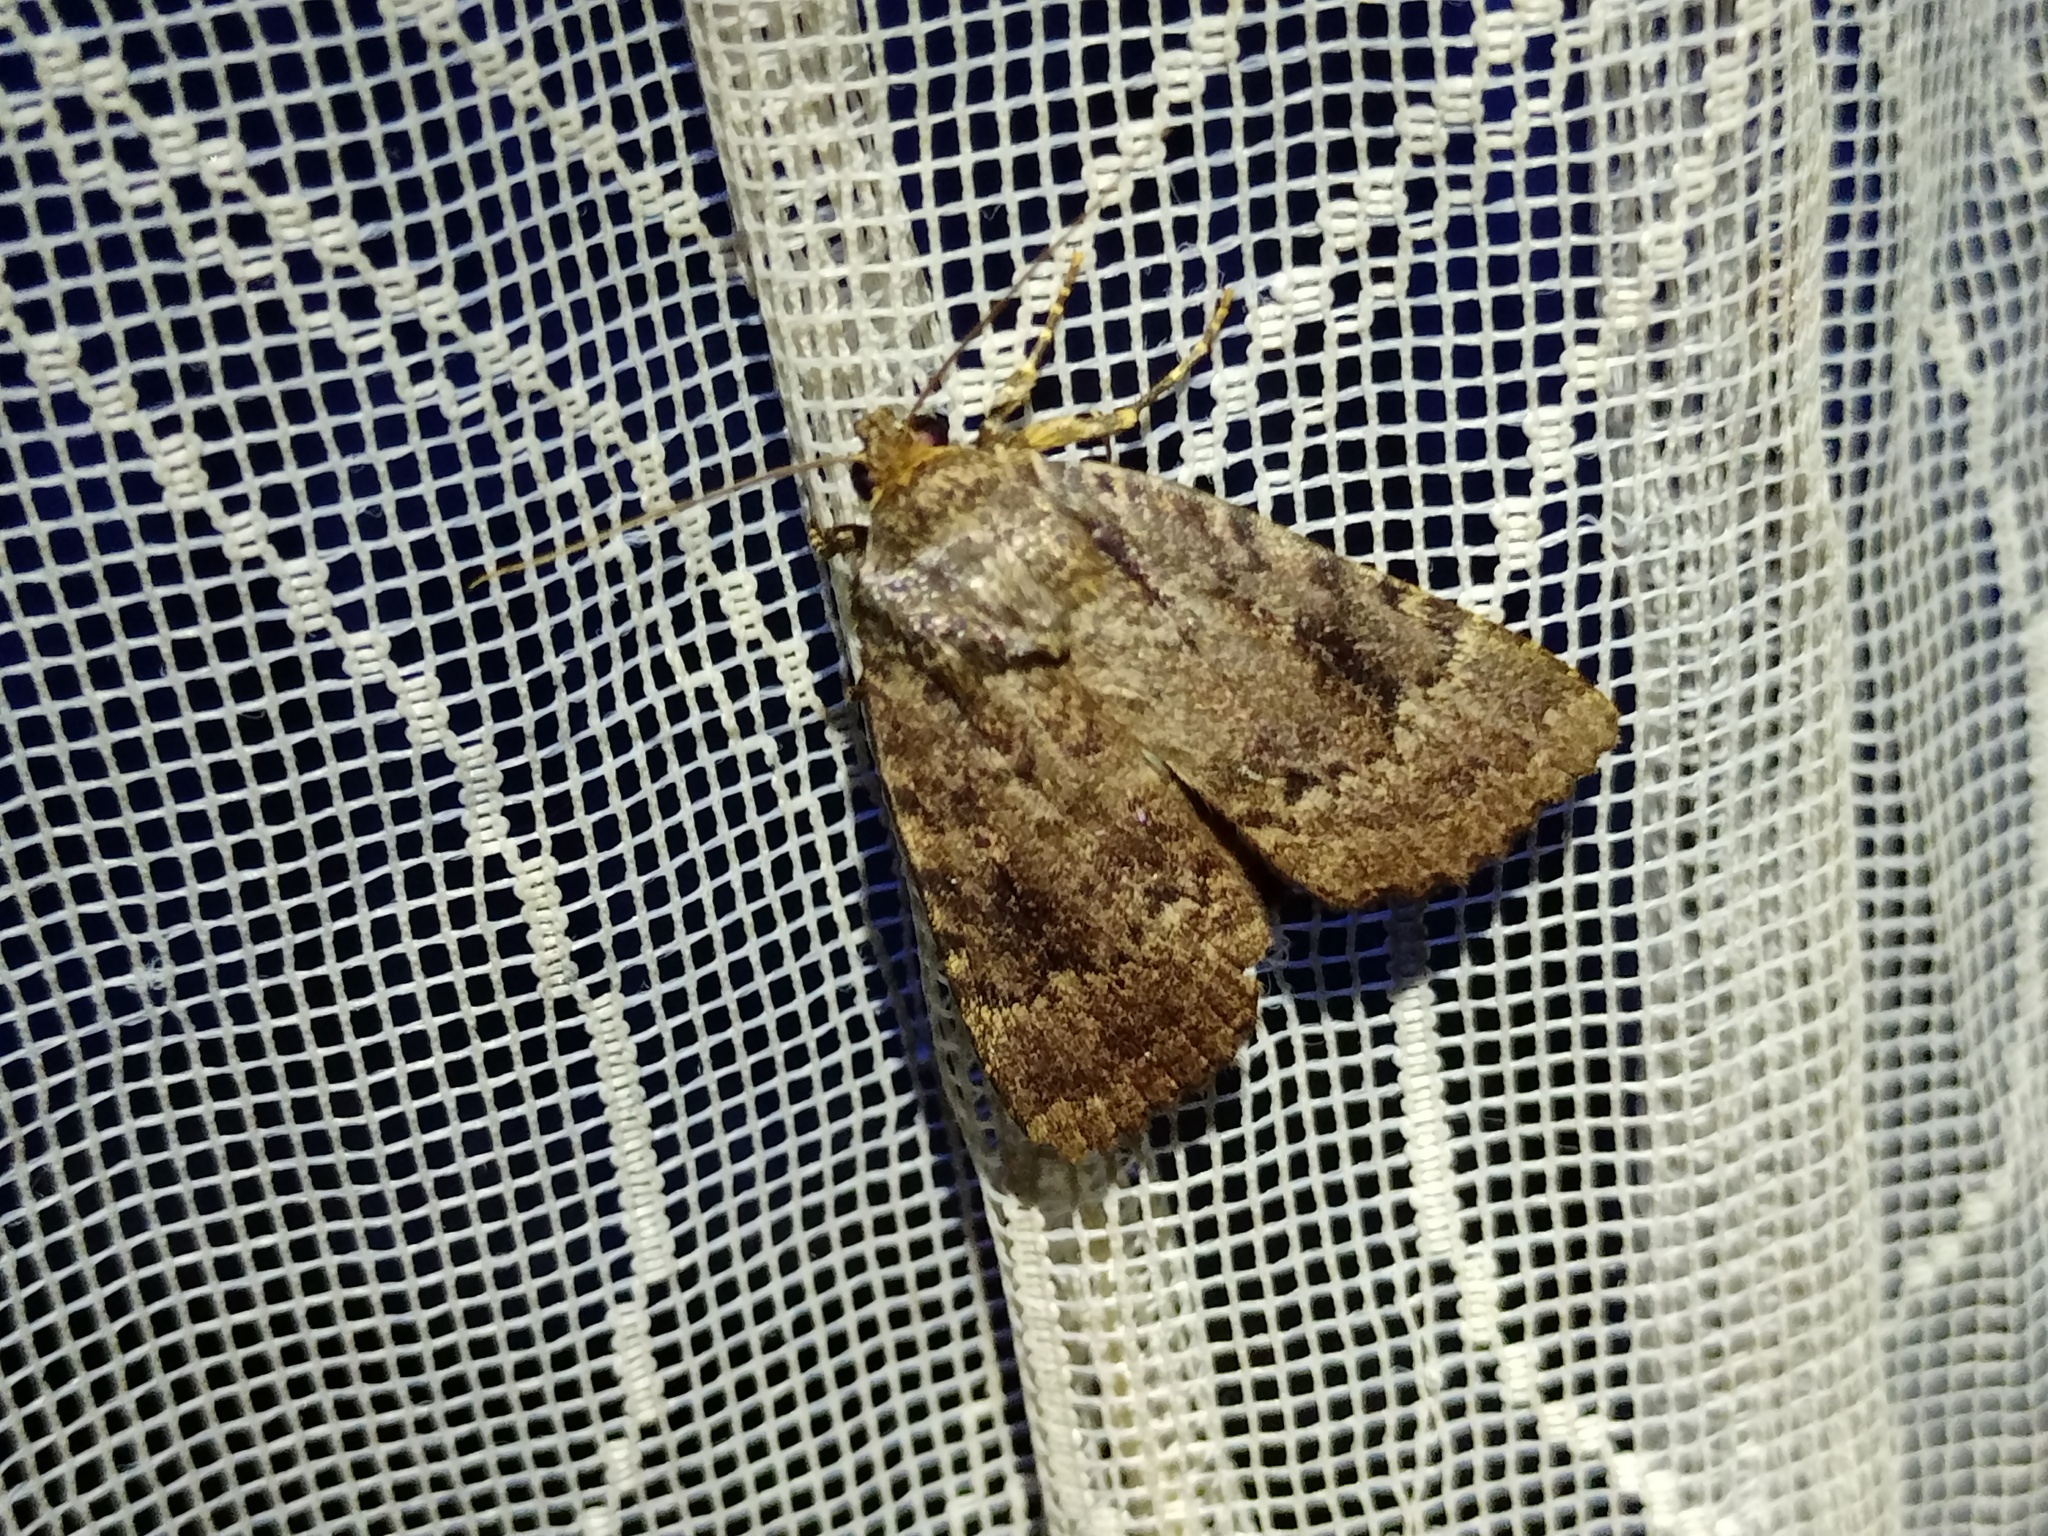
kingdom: Animalia
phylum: Arthropoda
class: Insecta
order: Lepidoptera
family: Noctuidae
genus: Amphipyra
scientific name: Amphipyra pyramidea
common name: Copper underwing
